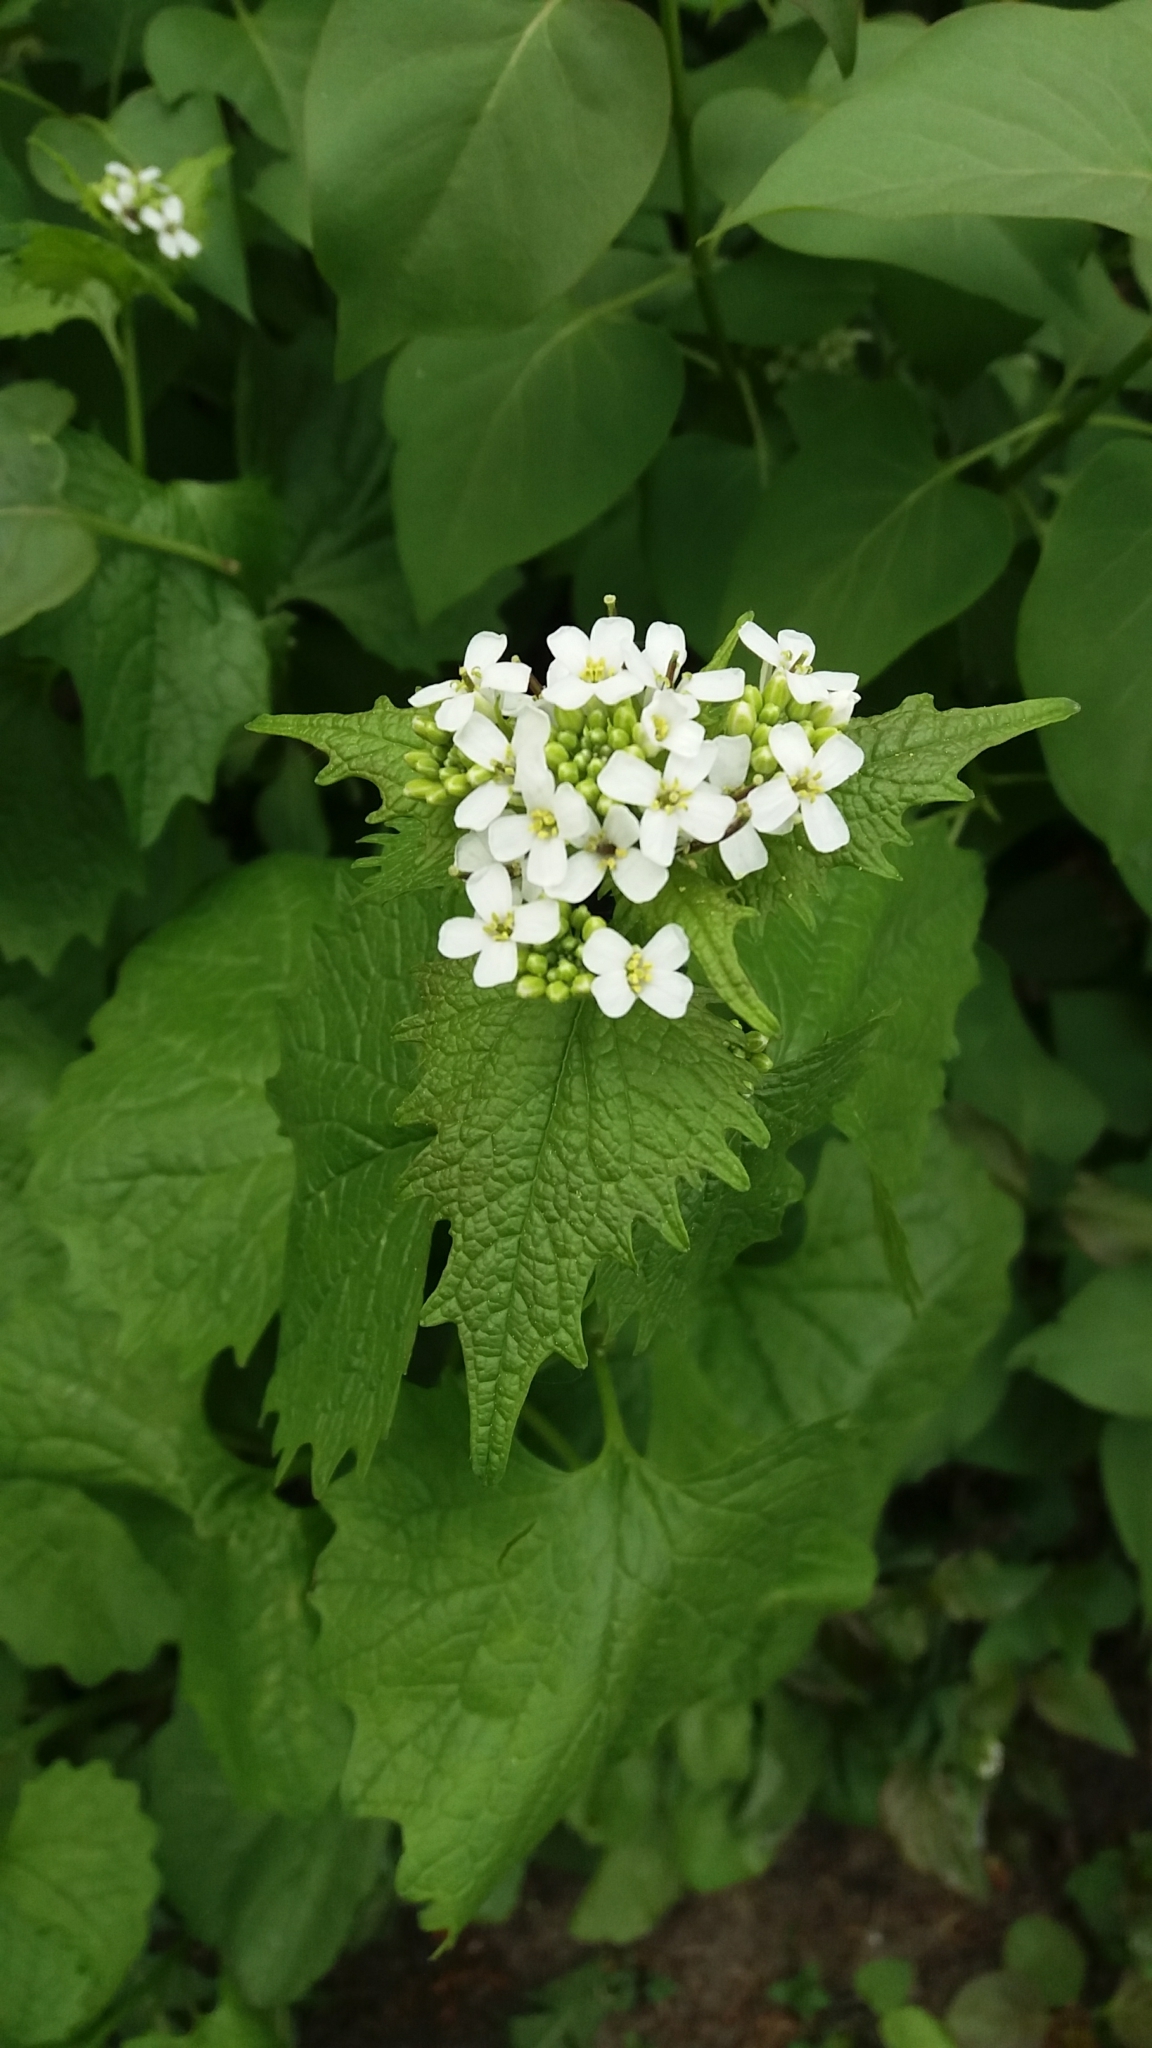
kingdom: Plantae
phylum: Tracheophyta
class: Magnoliopsida
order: Brassicales
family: Brassicaceae
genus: Alliaria
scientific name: Alliaria petiolata
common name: Garlic mustard
